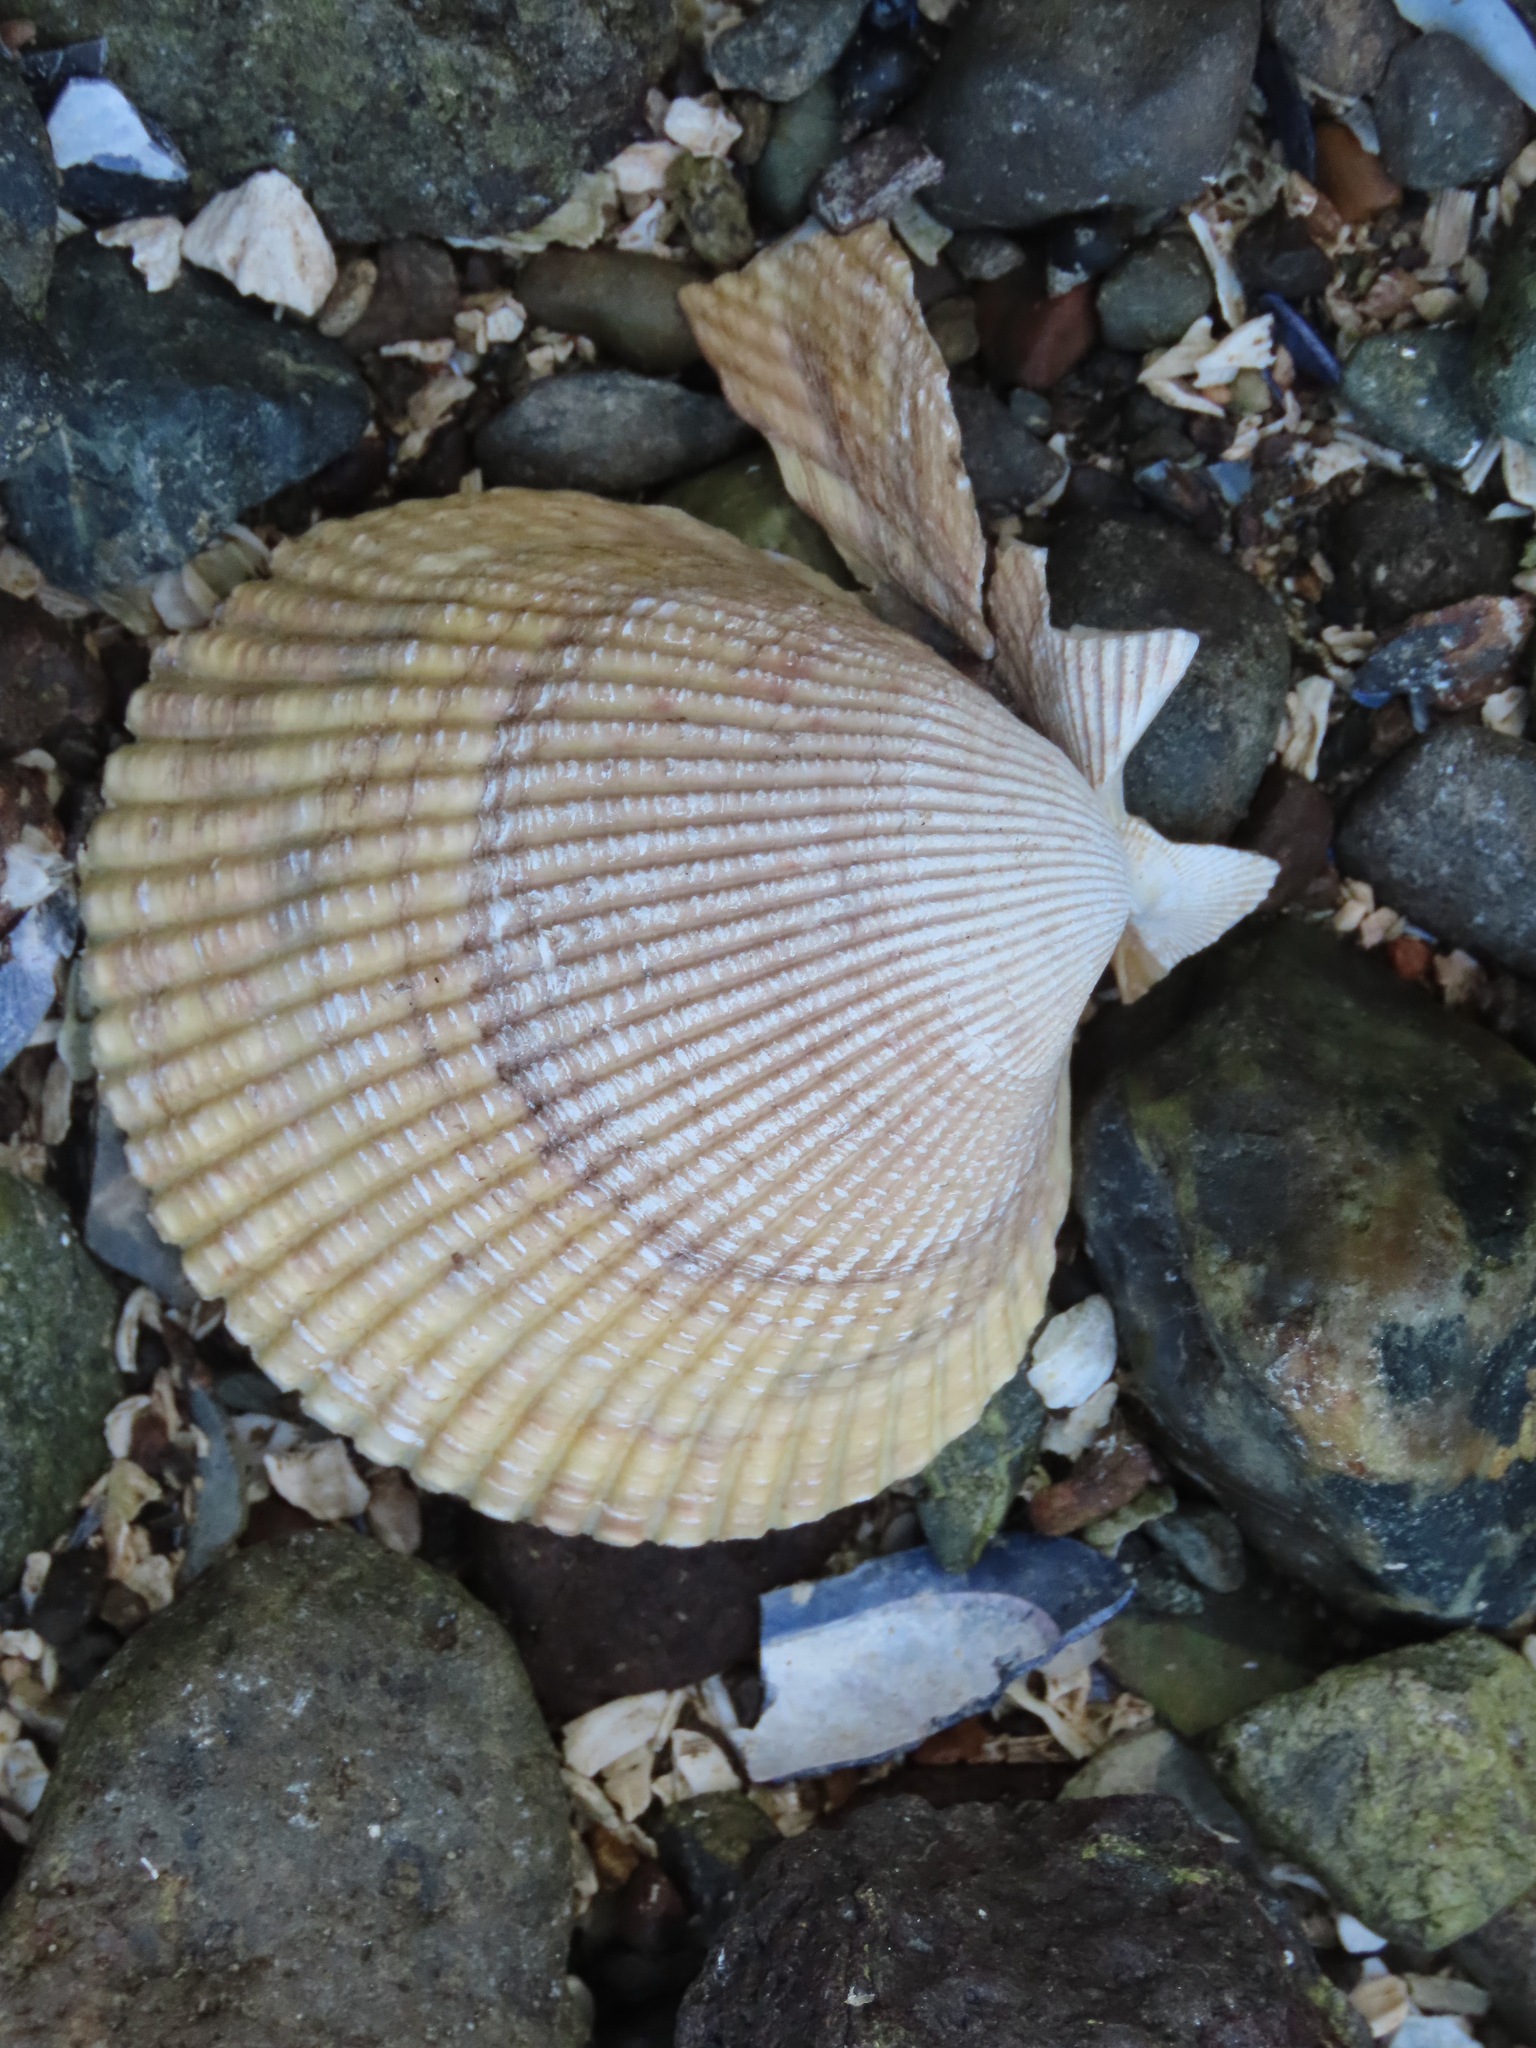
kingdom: Animalia
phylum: Mollusca
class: Bivalvia
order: Cardiida
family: Cardiidae
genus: Clinocardium
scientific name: Clinocardium nuttallii
